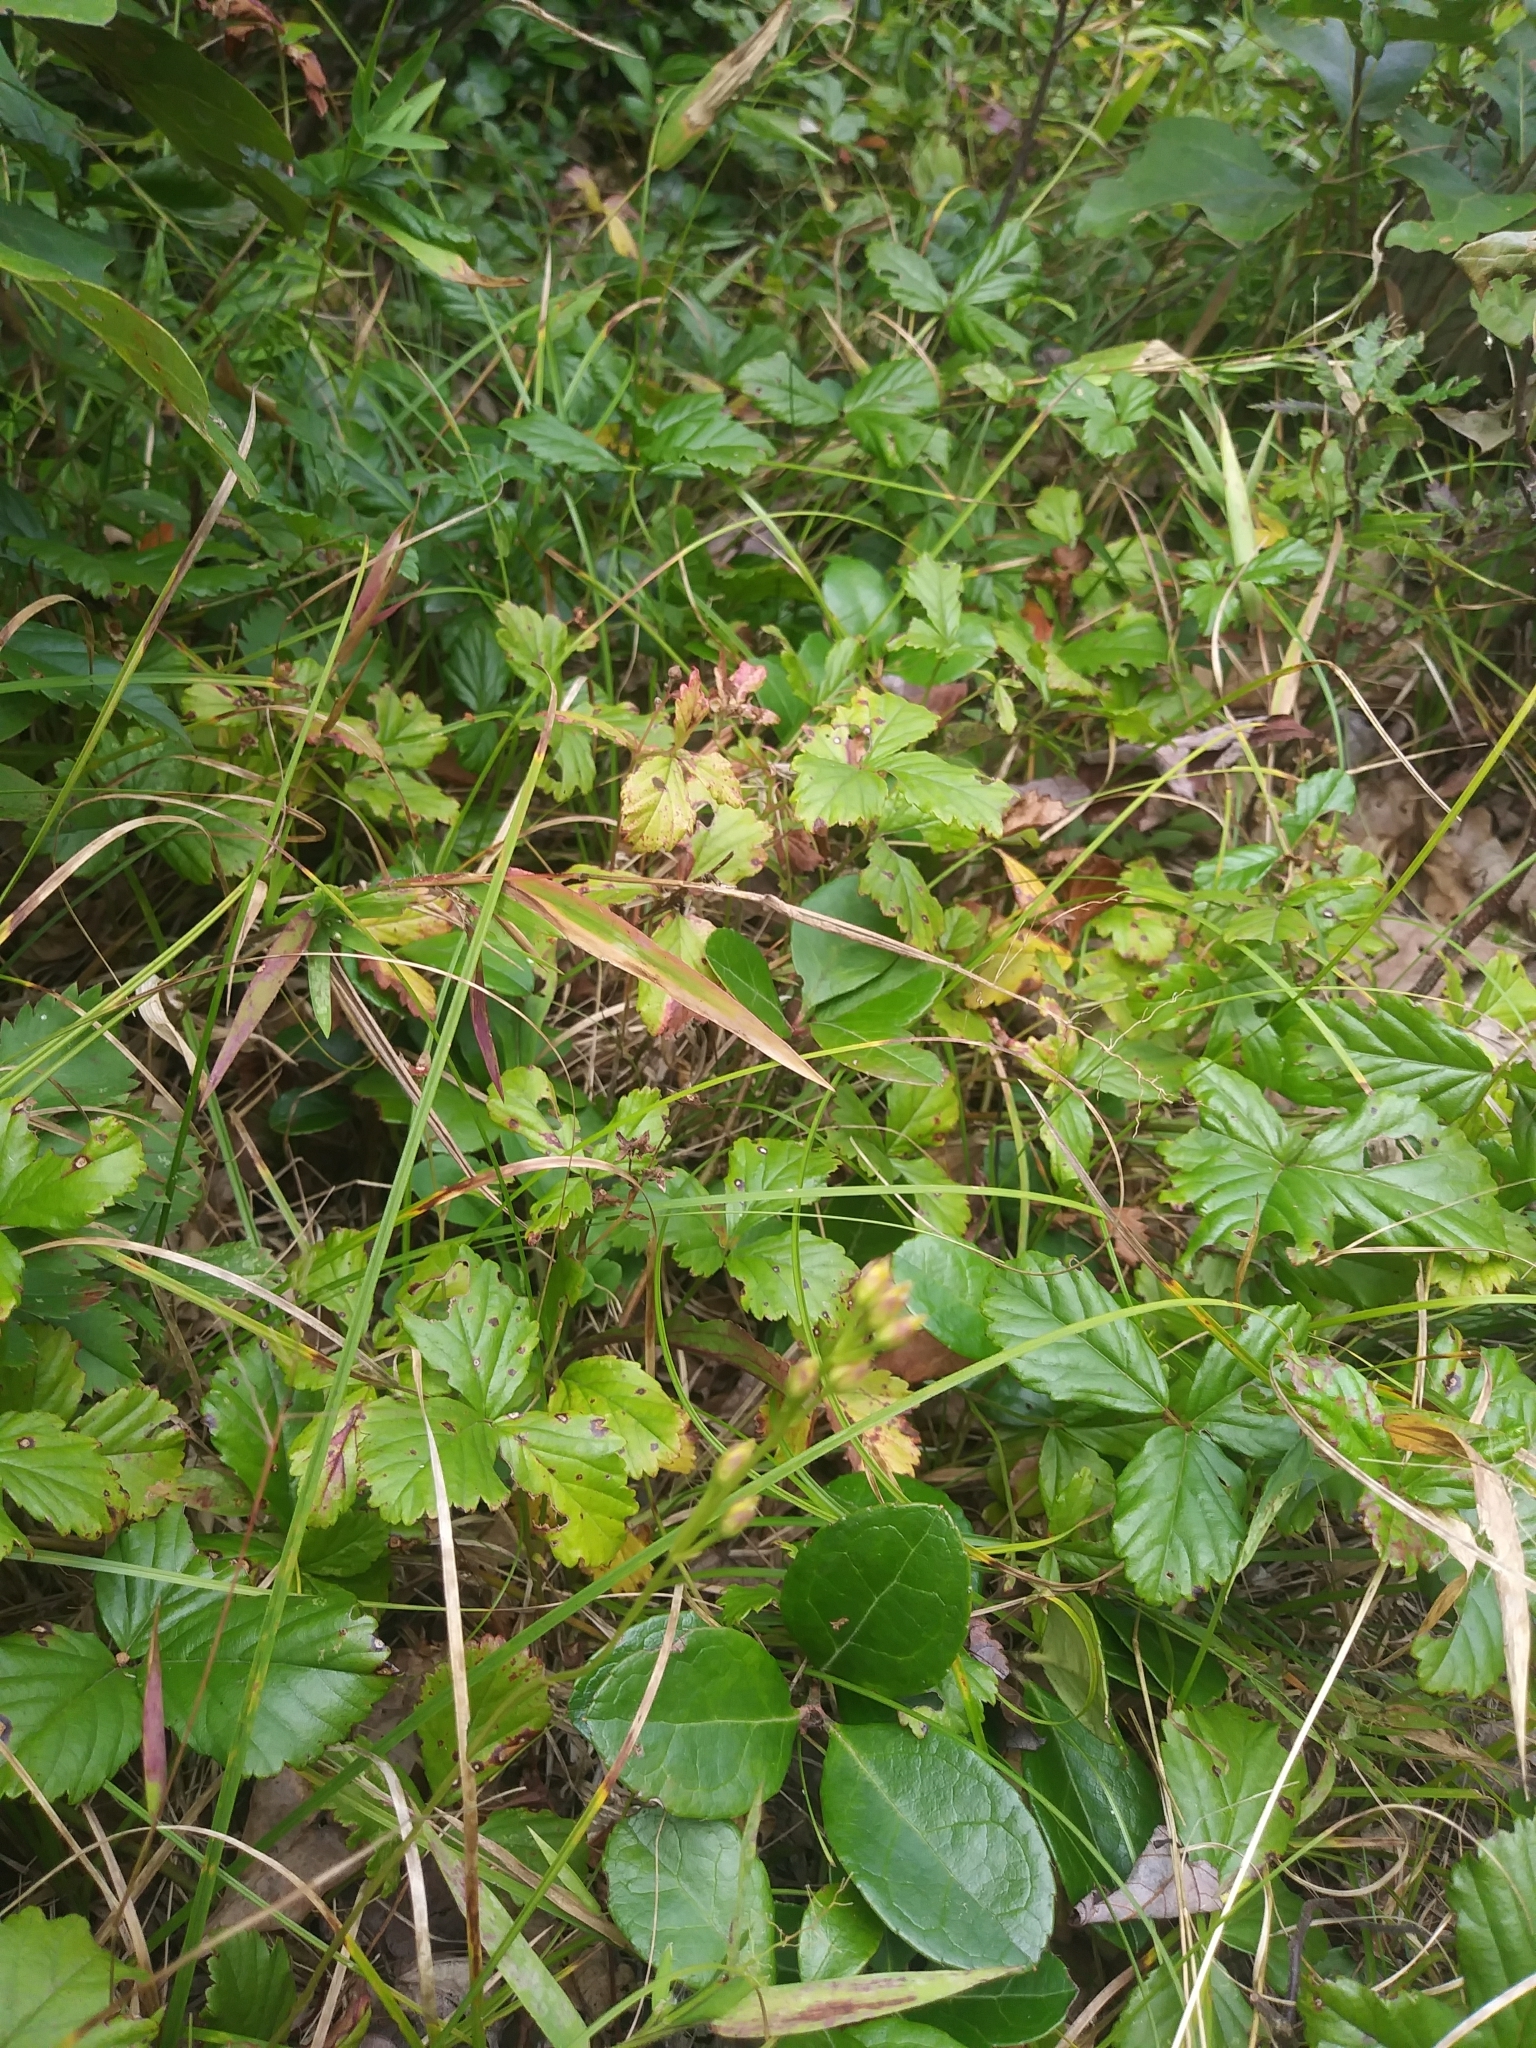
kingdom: Plantae
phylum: Tracheophyta
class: Magnoliopsida
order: Gentianales
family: Gentianaceae
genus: Bartonia
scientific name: Bartonia virginica
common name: Yellow bartonia
